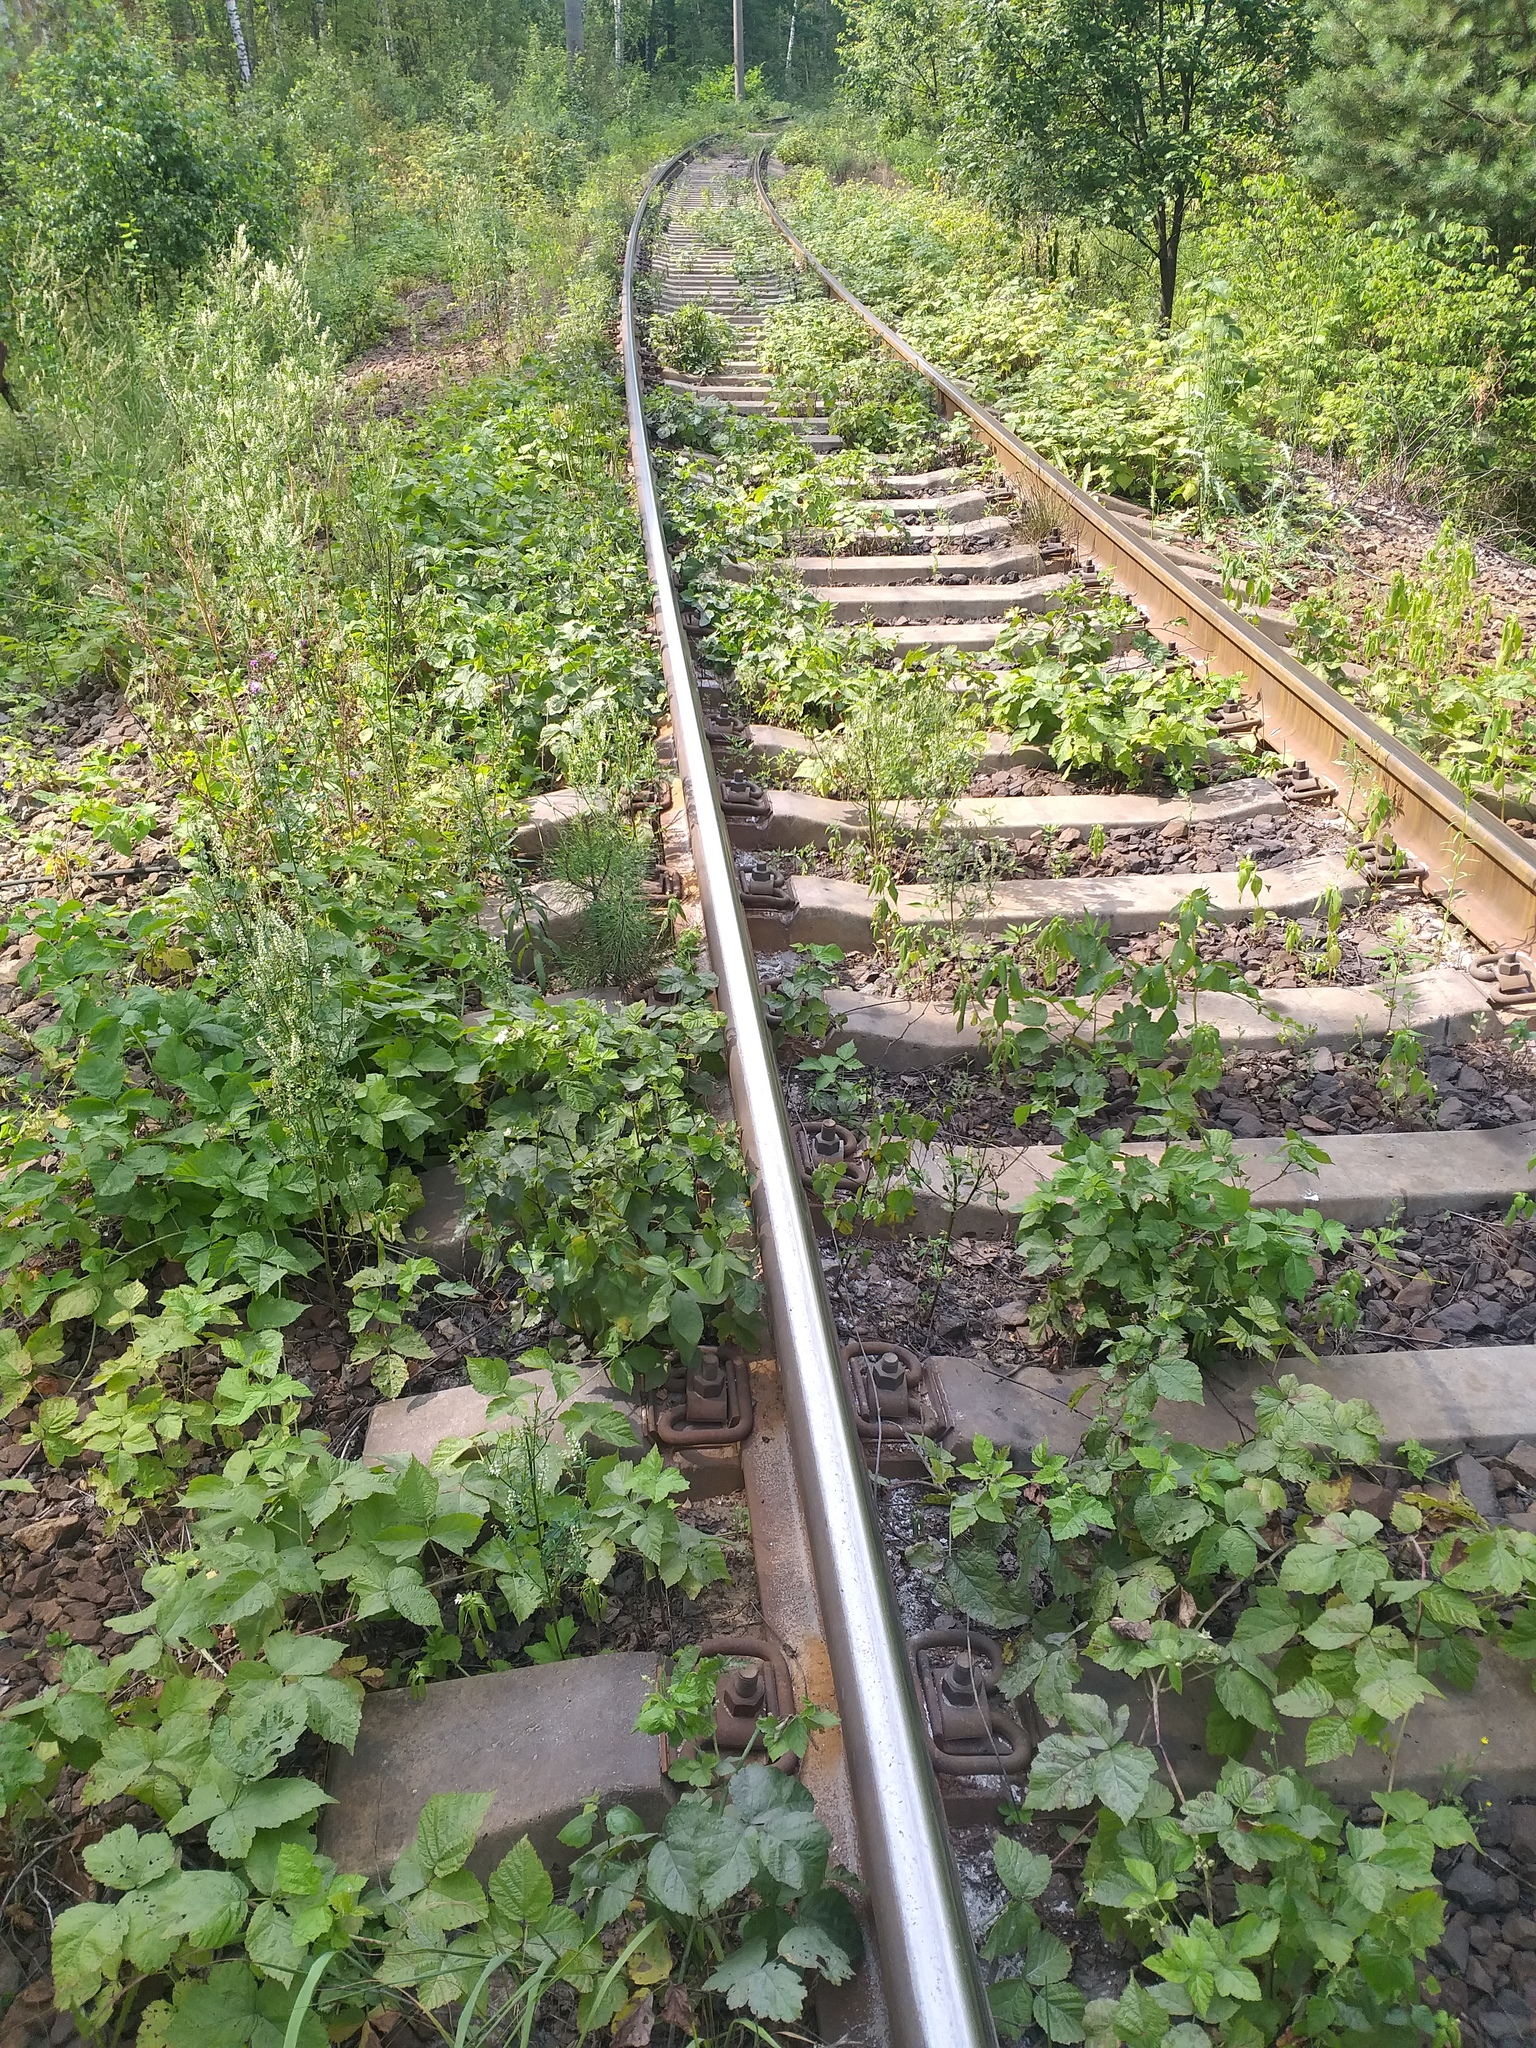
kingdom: Plantae
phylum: Tracheophyta
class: Magnoliopsida
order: Rosales
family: Rosaceae
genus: Rubus
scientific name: Rubus caesius
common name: Dewberry
